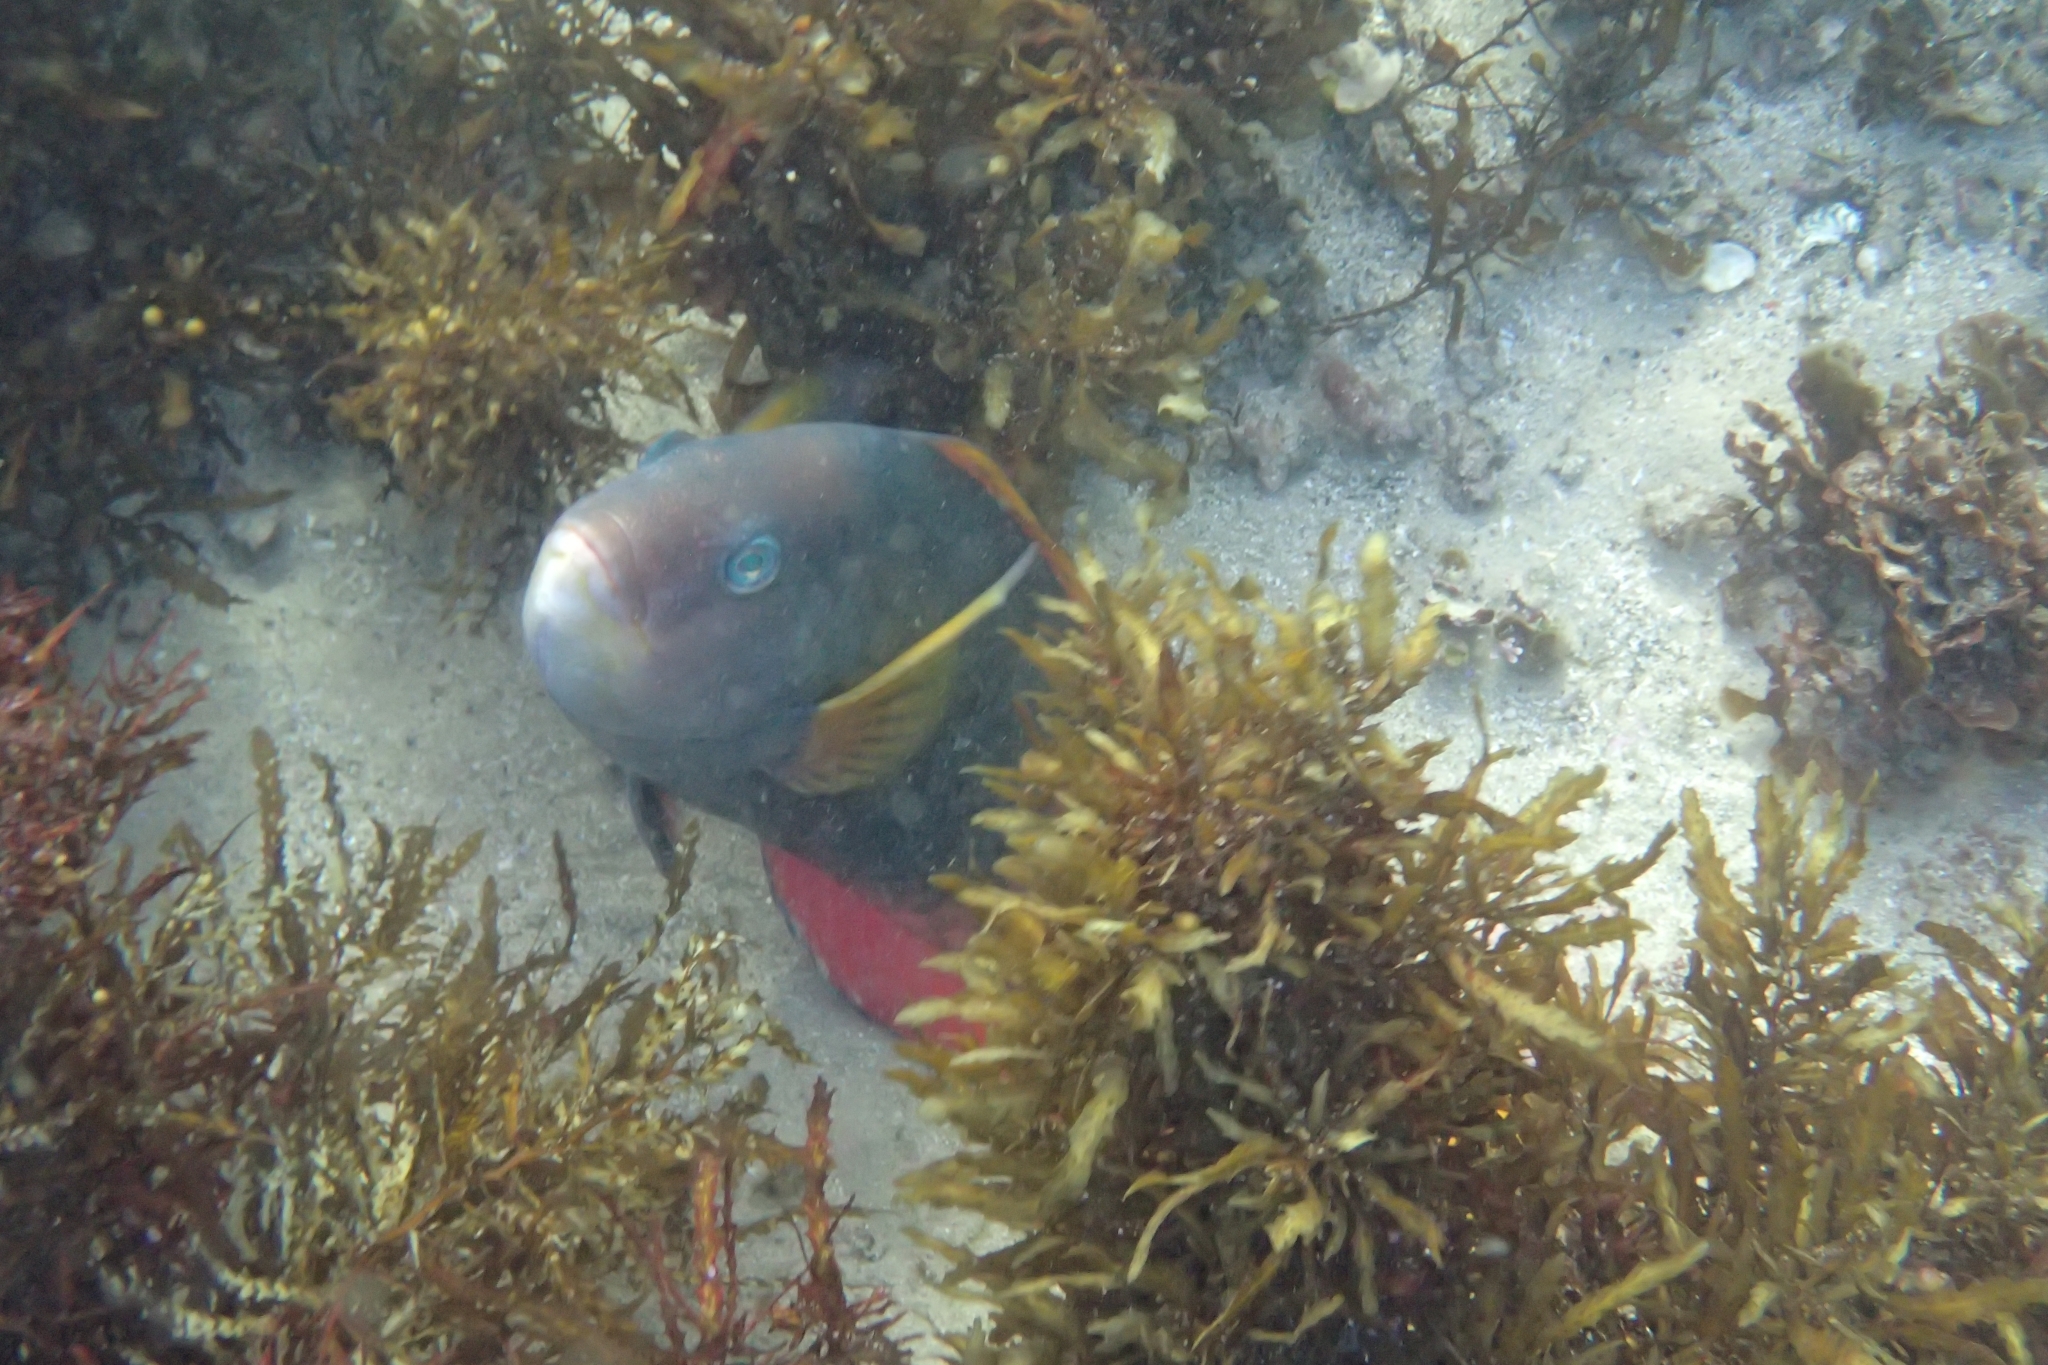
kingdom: Animalia
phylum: Chordata
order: Perciformes
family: Labridae
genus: Notolabrus
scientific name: Notolabrus gymnogenis
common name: Crimson banded wrasse
